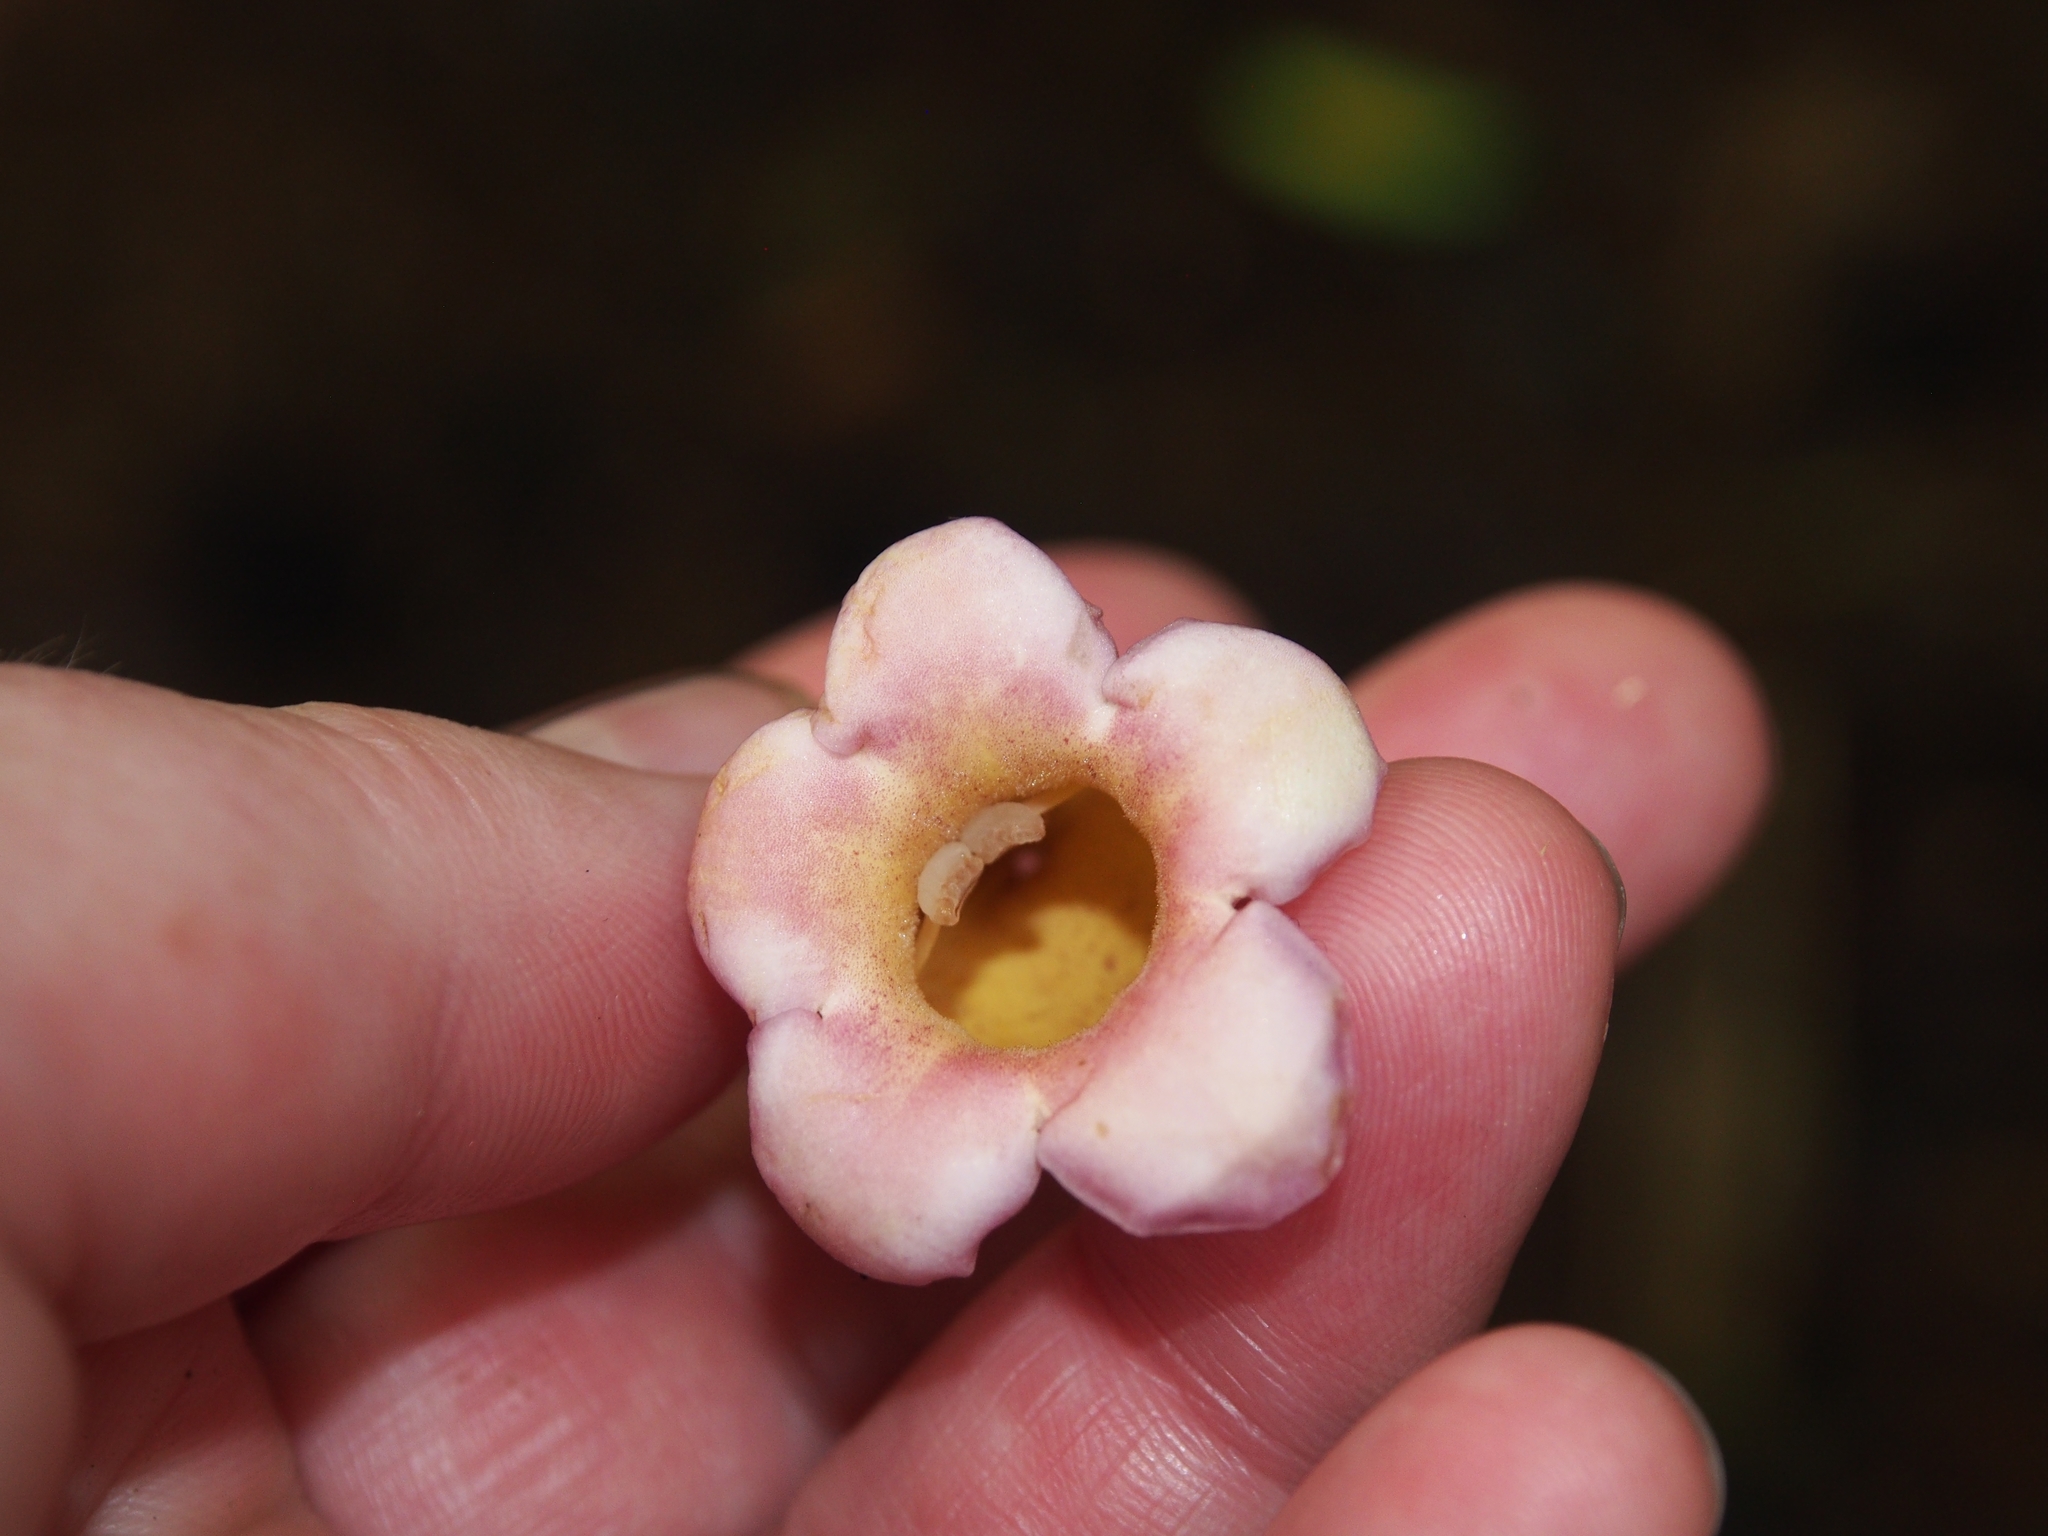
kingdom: Plantae
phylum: Tracheophyta
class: Magnoliopsida
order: Lamiales
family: Schlegeliaceae
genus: Schlegelia
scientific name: Schlegelia nicaraguensis
